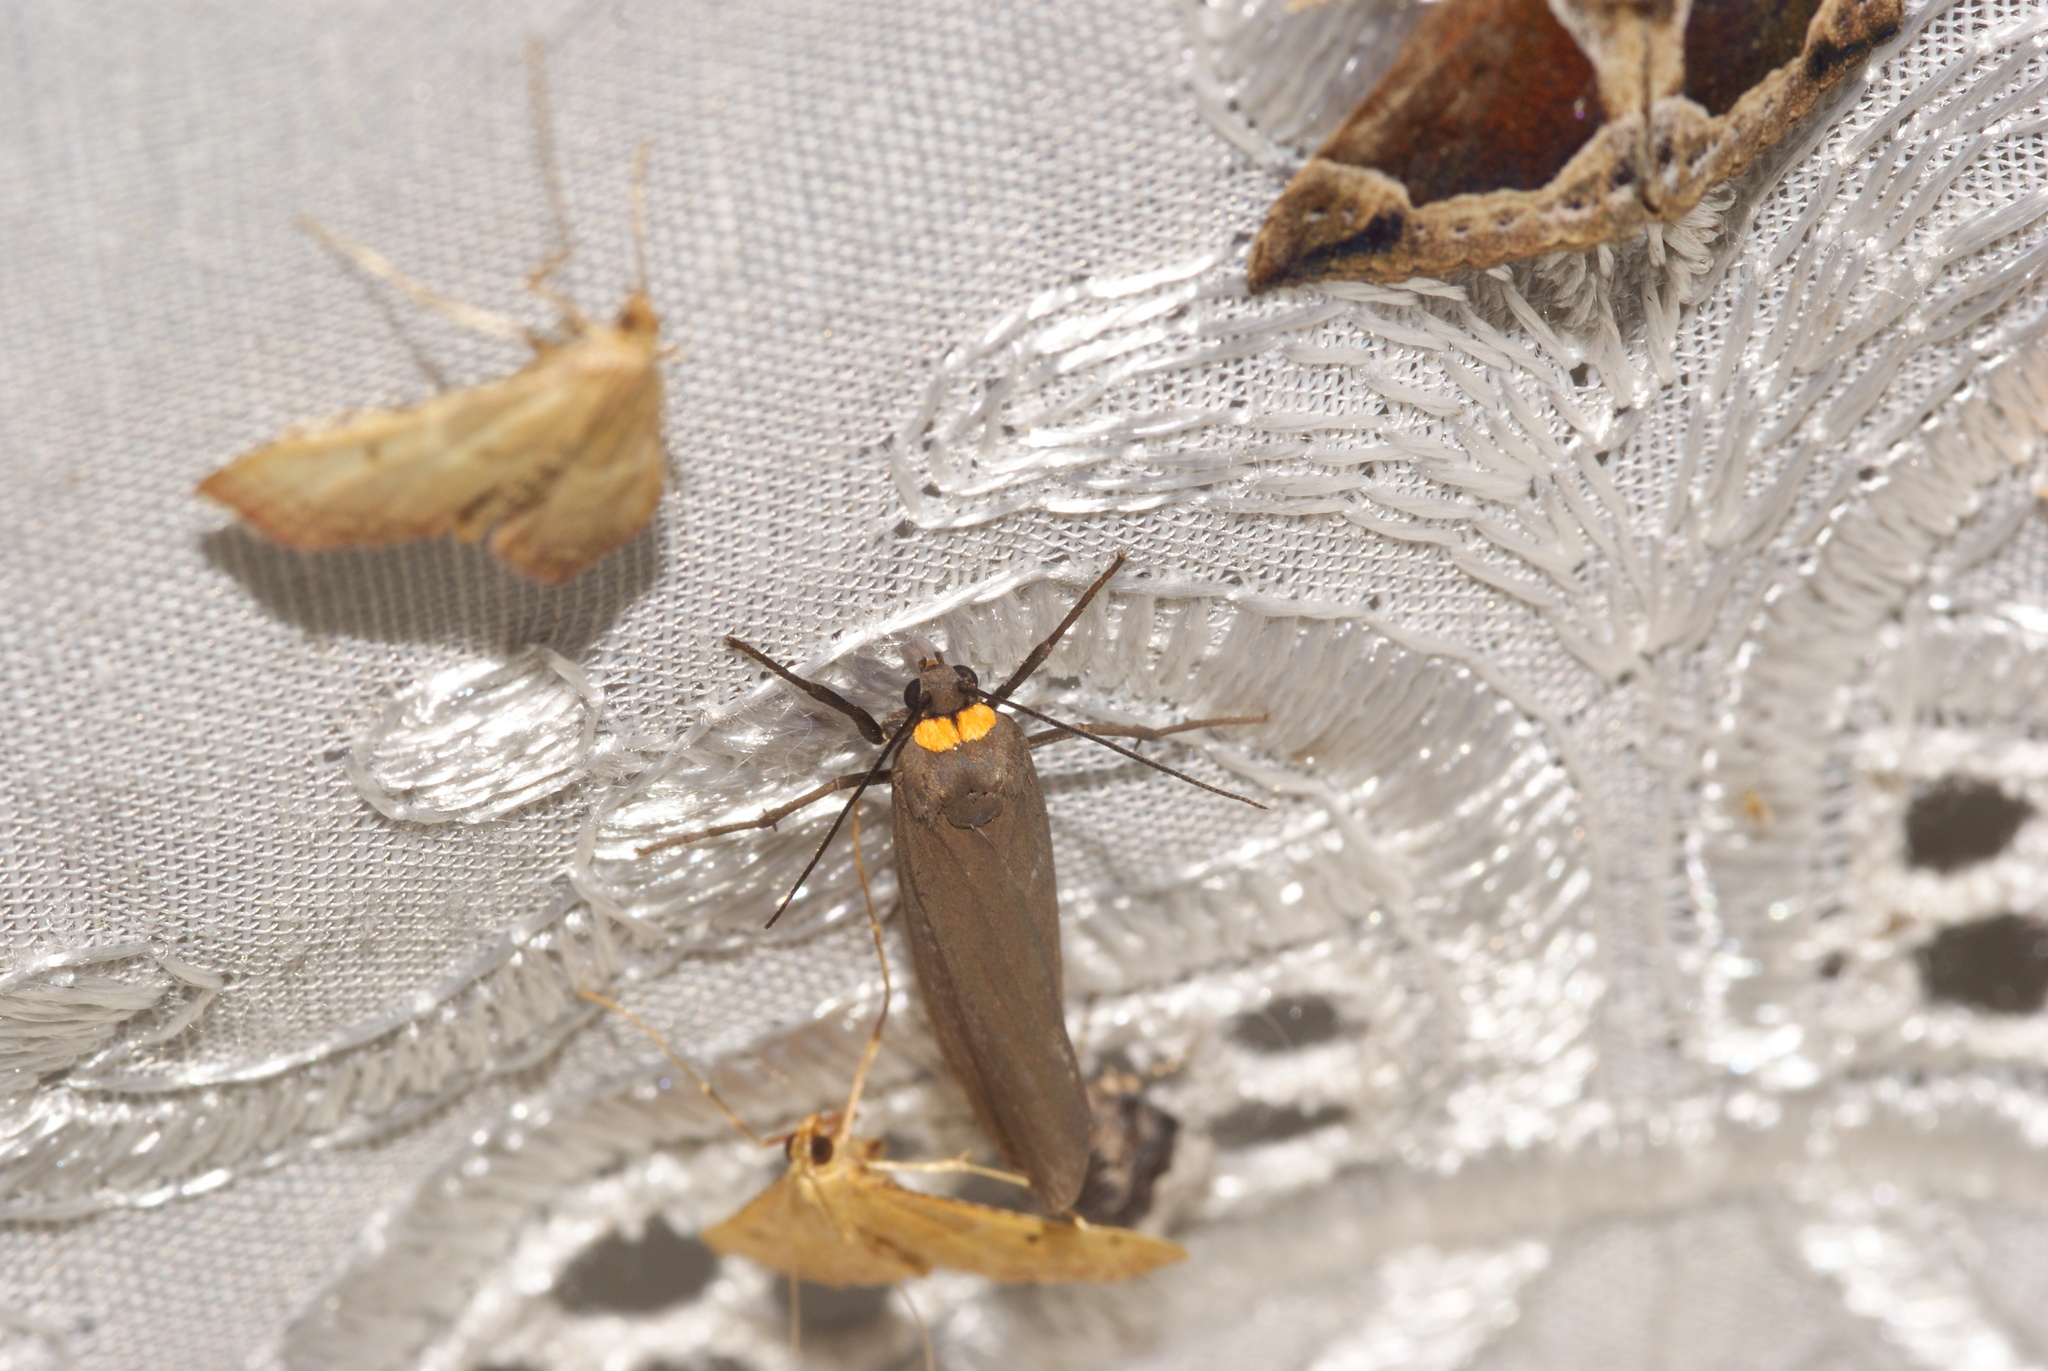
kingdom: Animalia
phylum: Arthropoda
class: Insecta
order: Lepidoptera
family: Erebidae
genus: Atolmis
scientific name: Atolmis rubricollis
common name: Red-necked footman
